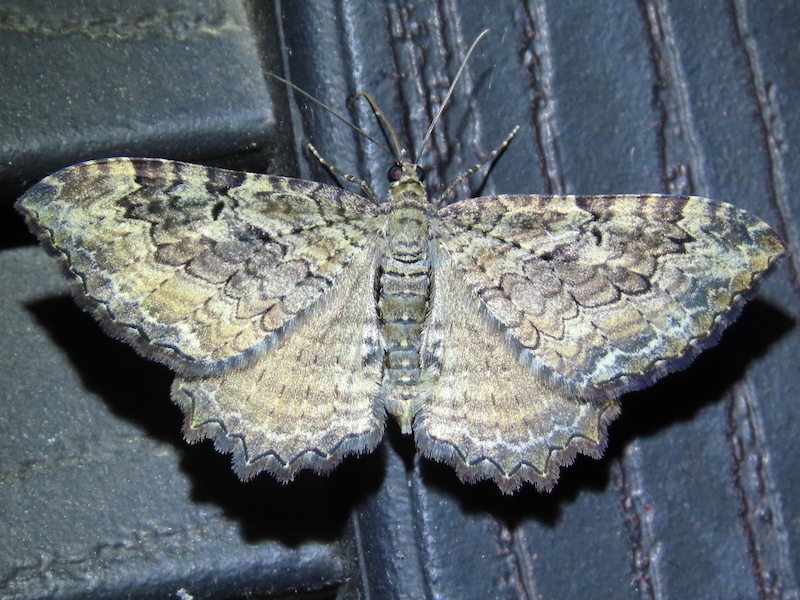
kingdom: Animalia
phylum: Arthropoda
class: Insecta
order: Lepidoptera
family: Geometridae
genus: Rheumaptera
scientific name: Rheumaptera
